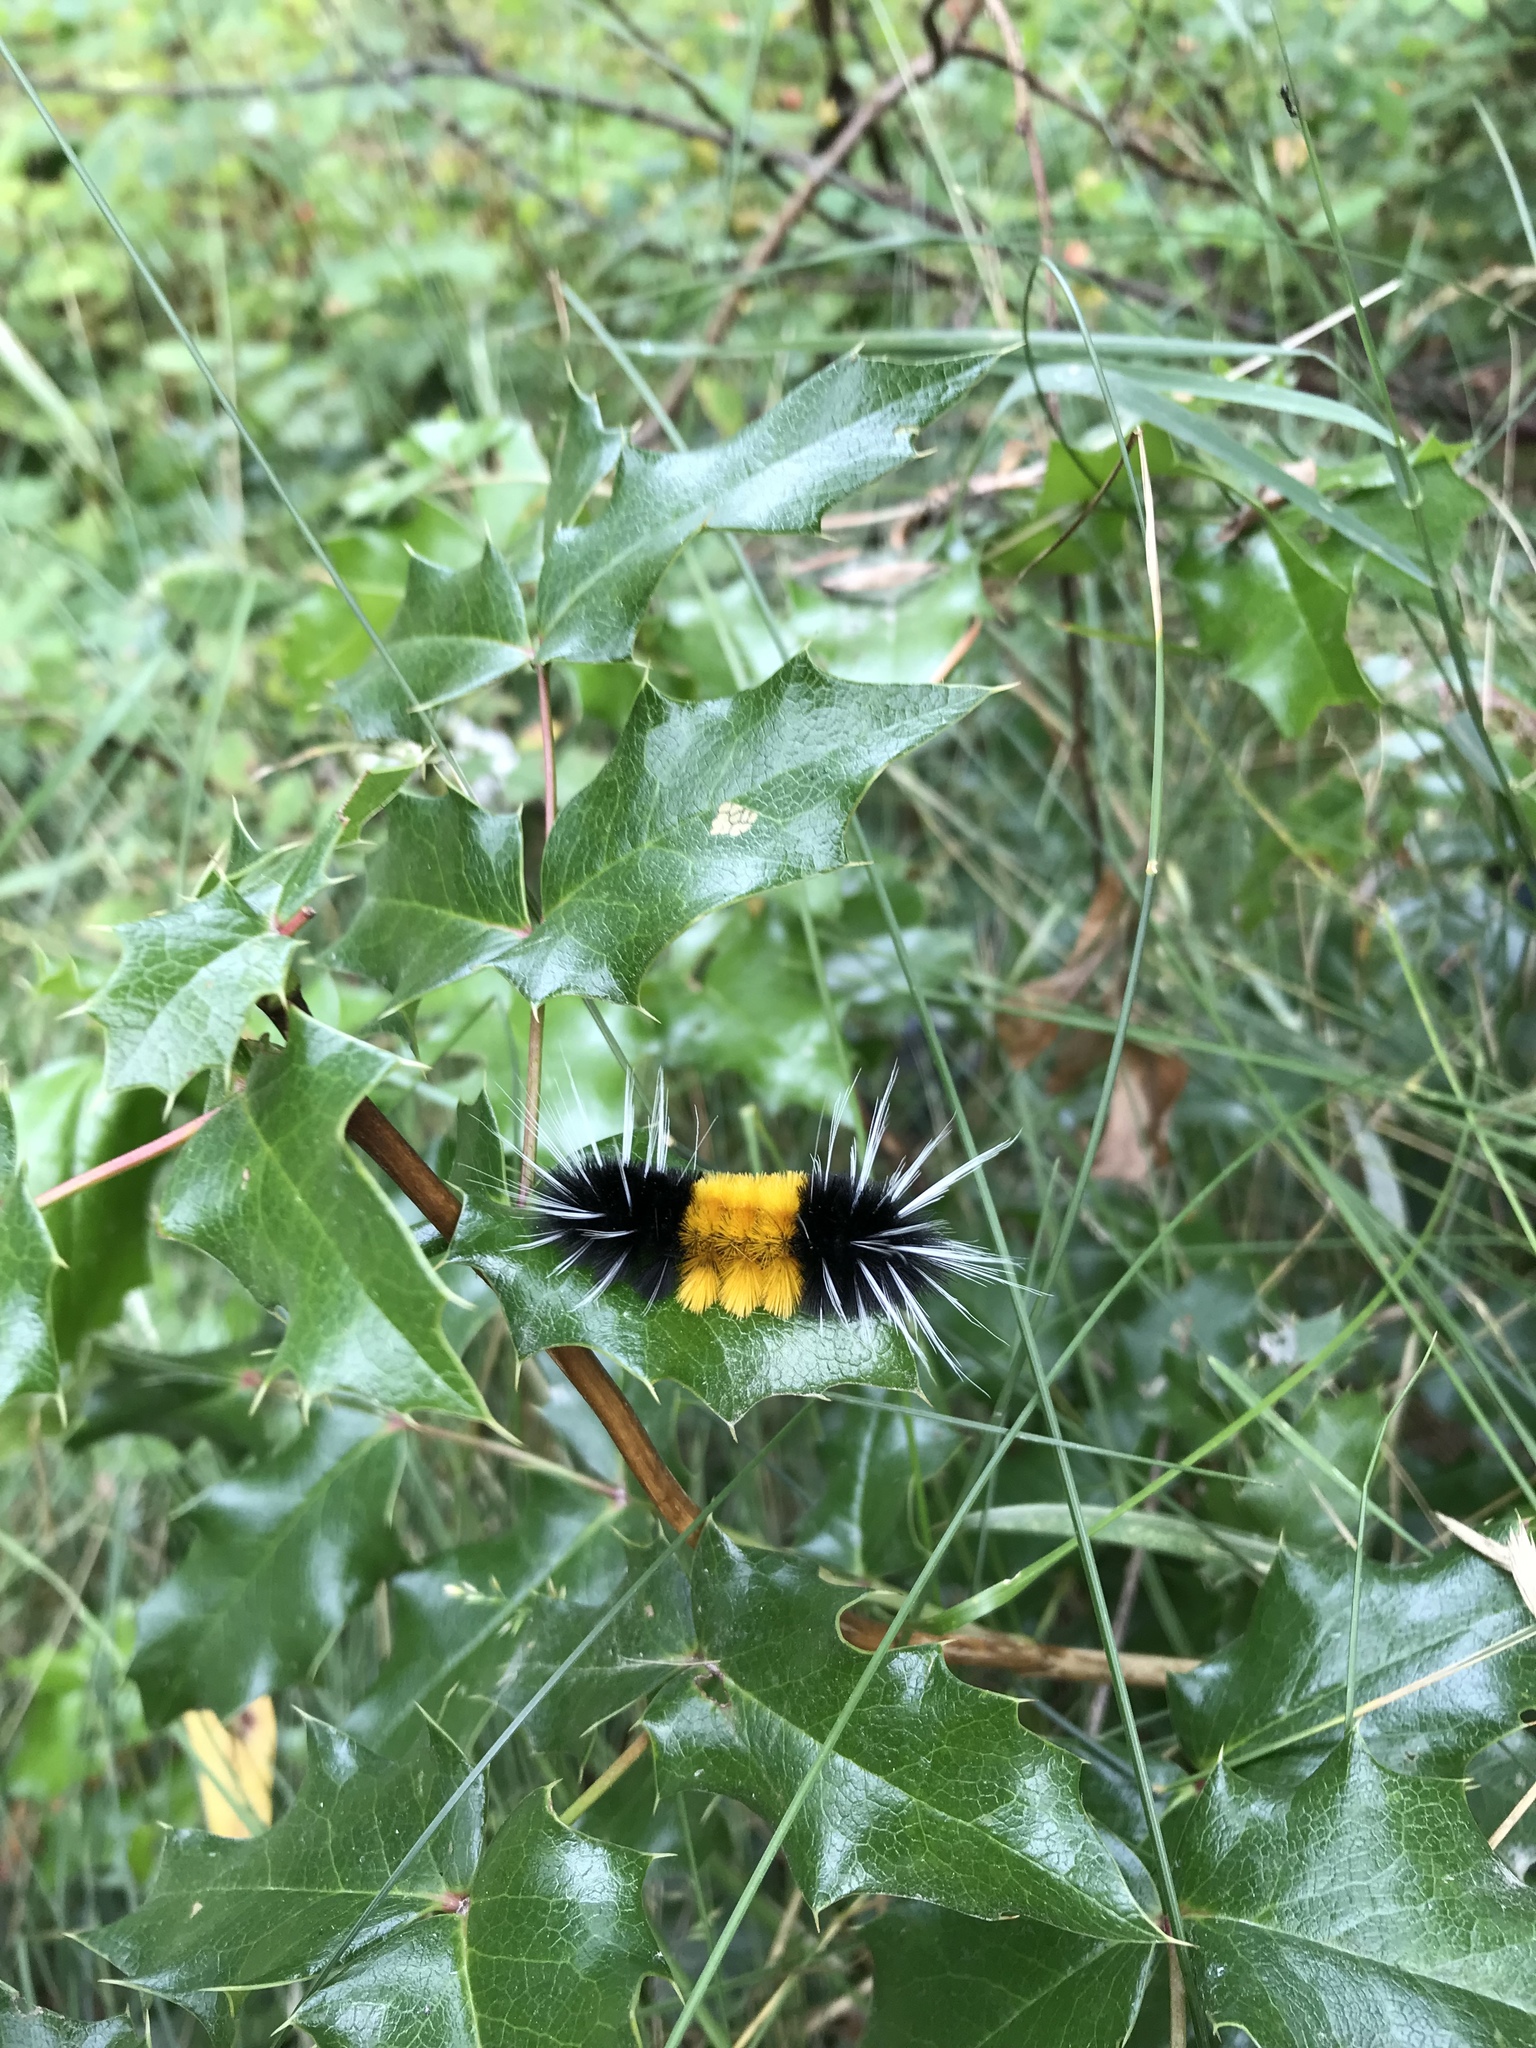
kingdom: Animalia
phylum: Arthropoda
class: Insecta
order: Lepidoptera
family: Erebidae
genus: Lophocampa
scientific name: Lophocampa maculata
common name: Spotted tussock moth
